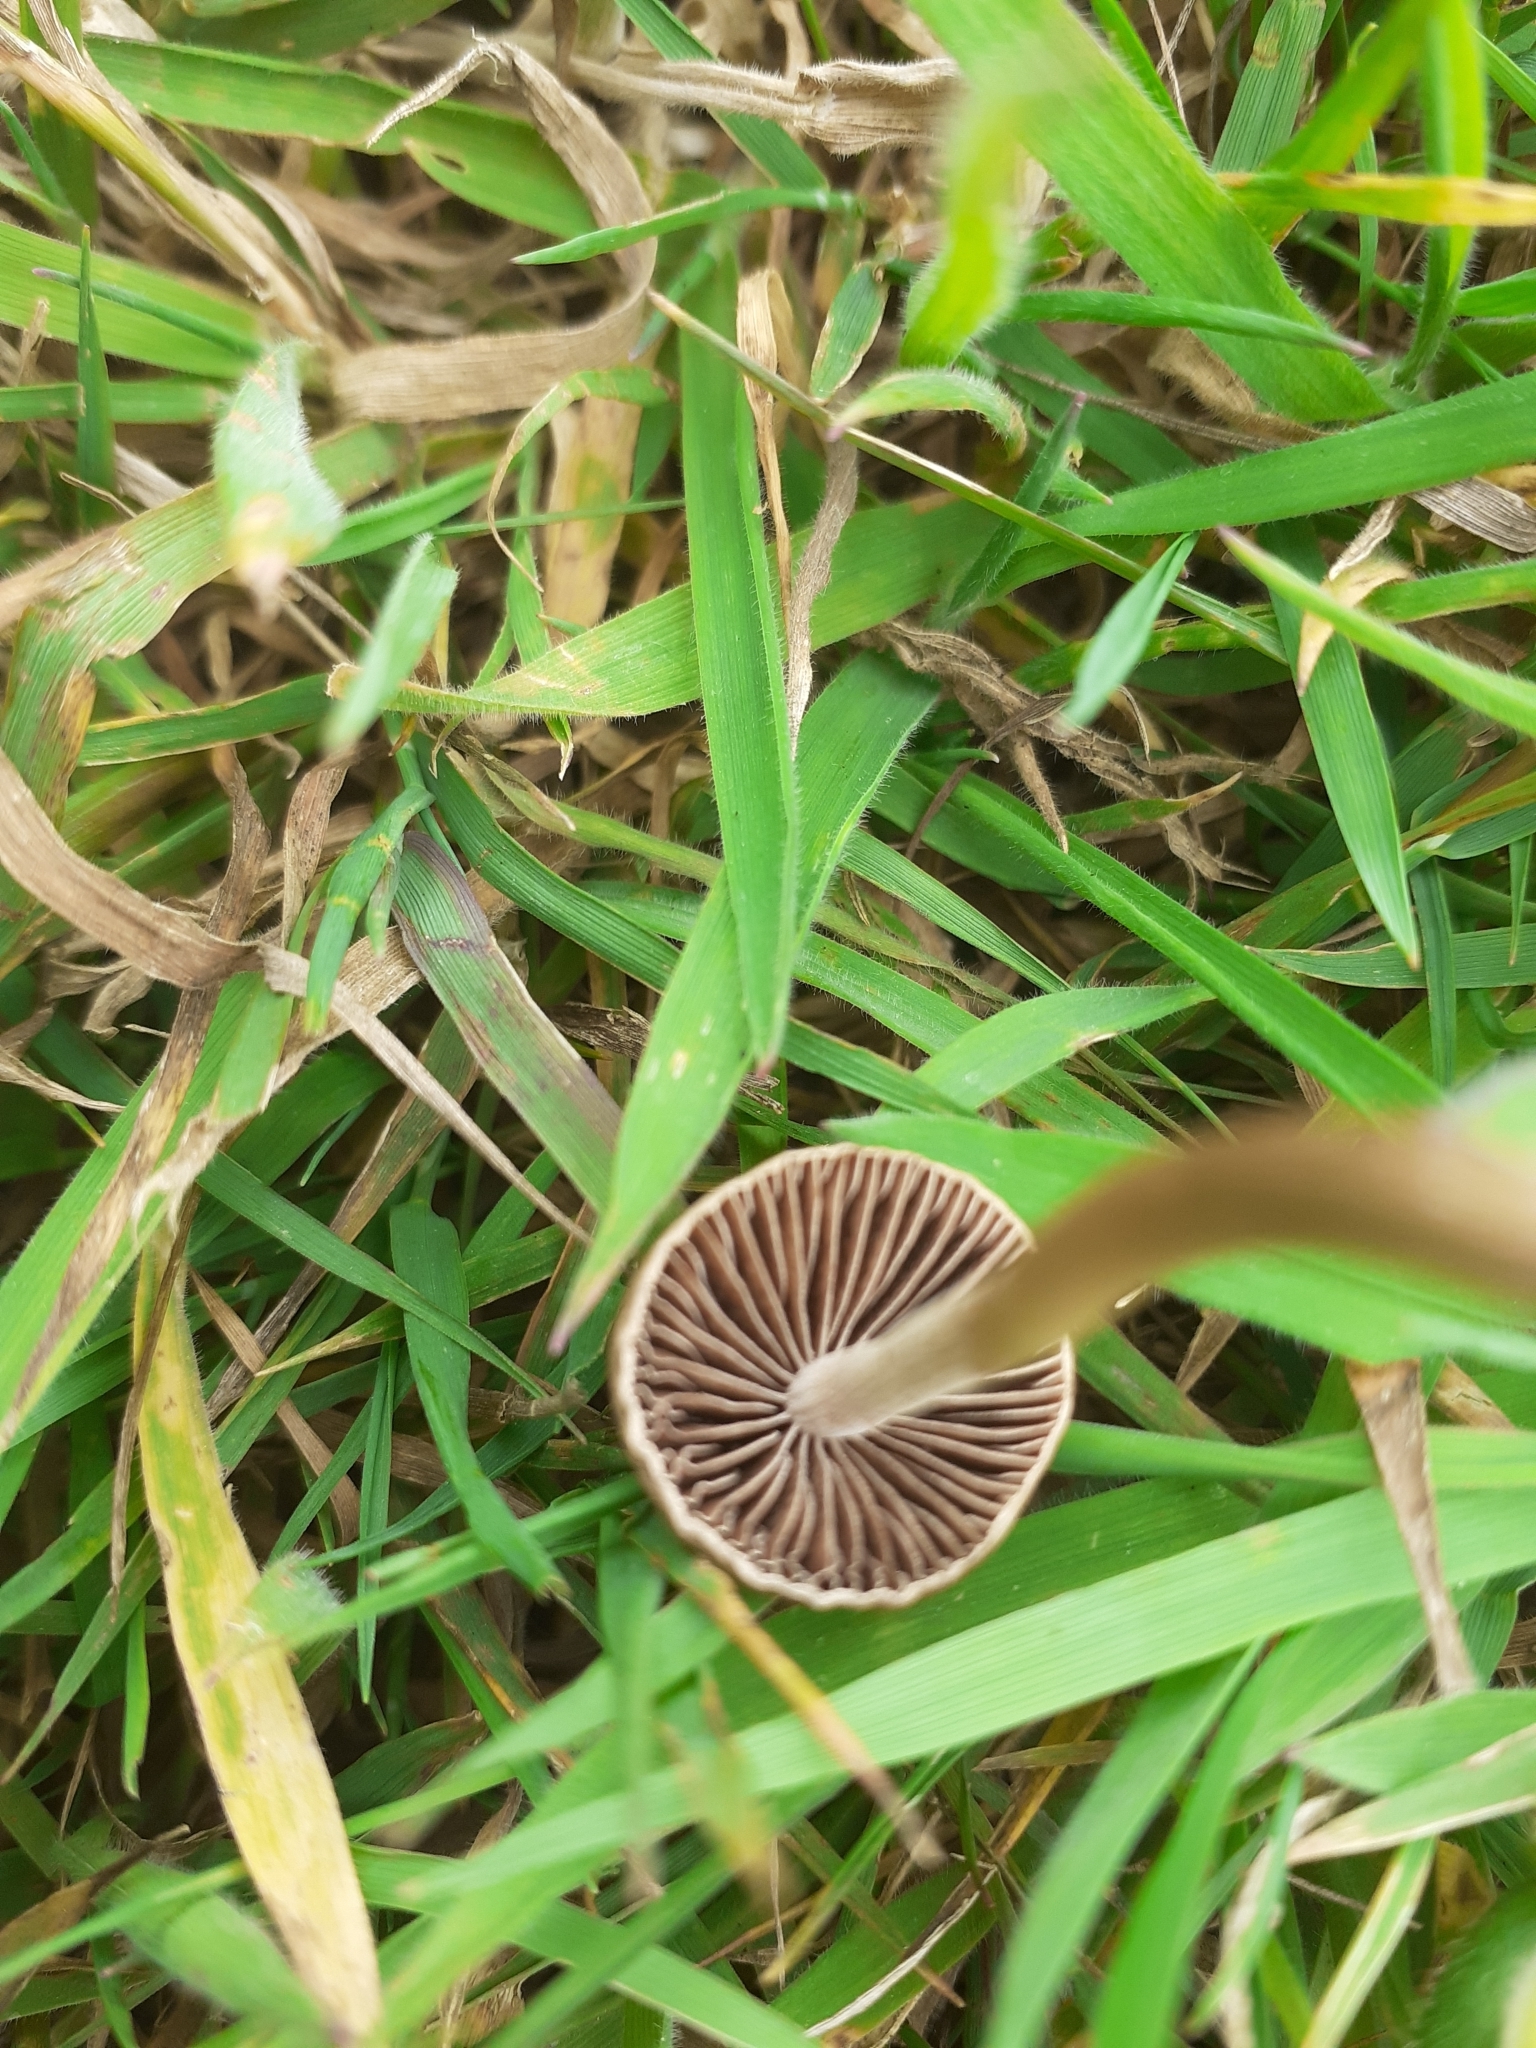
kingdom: Fungi
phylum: Basidiomycota
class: Agaricomycetes
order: Agaricales
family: Bolbitiaceae
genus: Panaeolina
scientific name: Panaeolina foenisecii
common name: Brown hay cap
